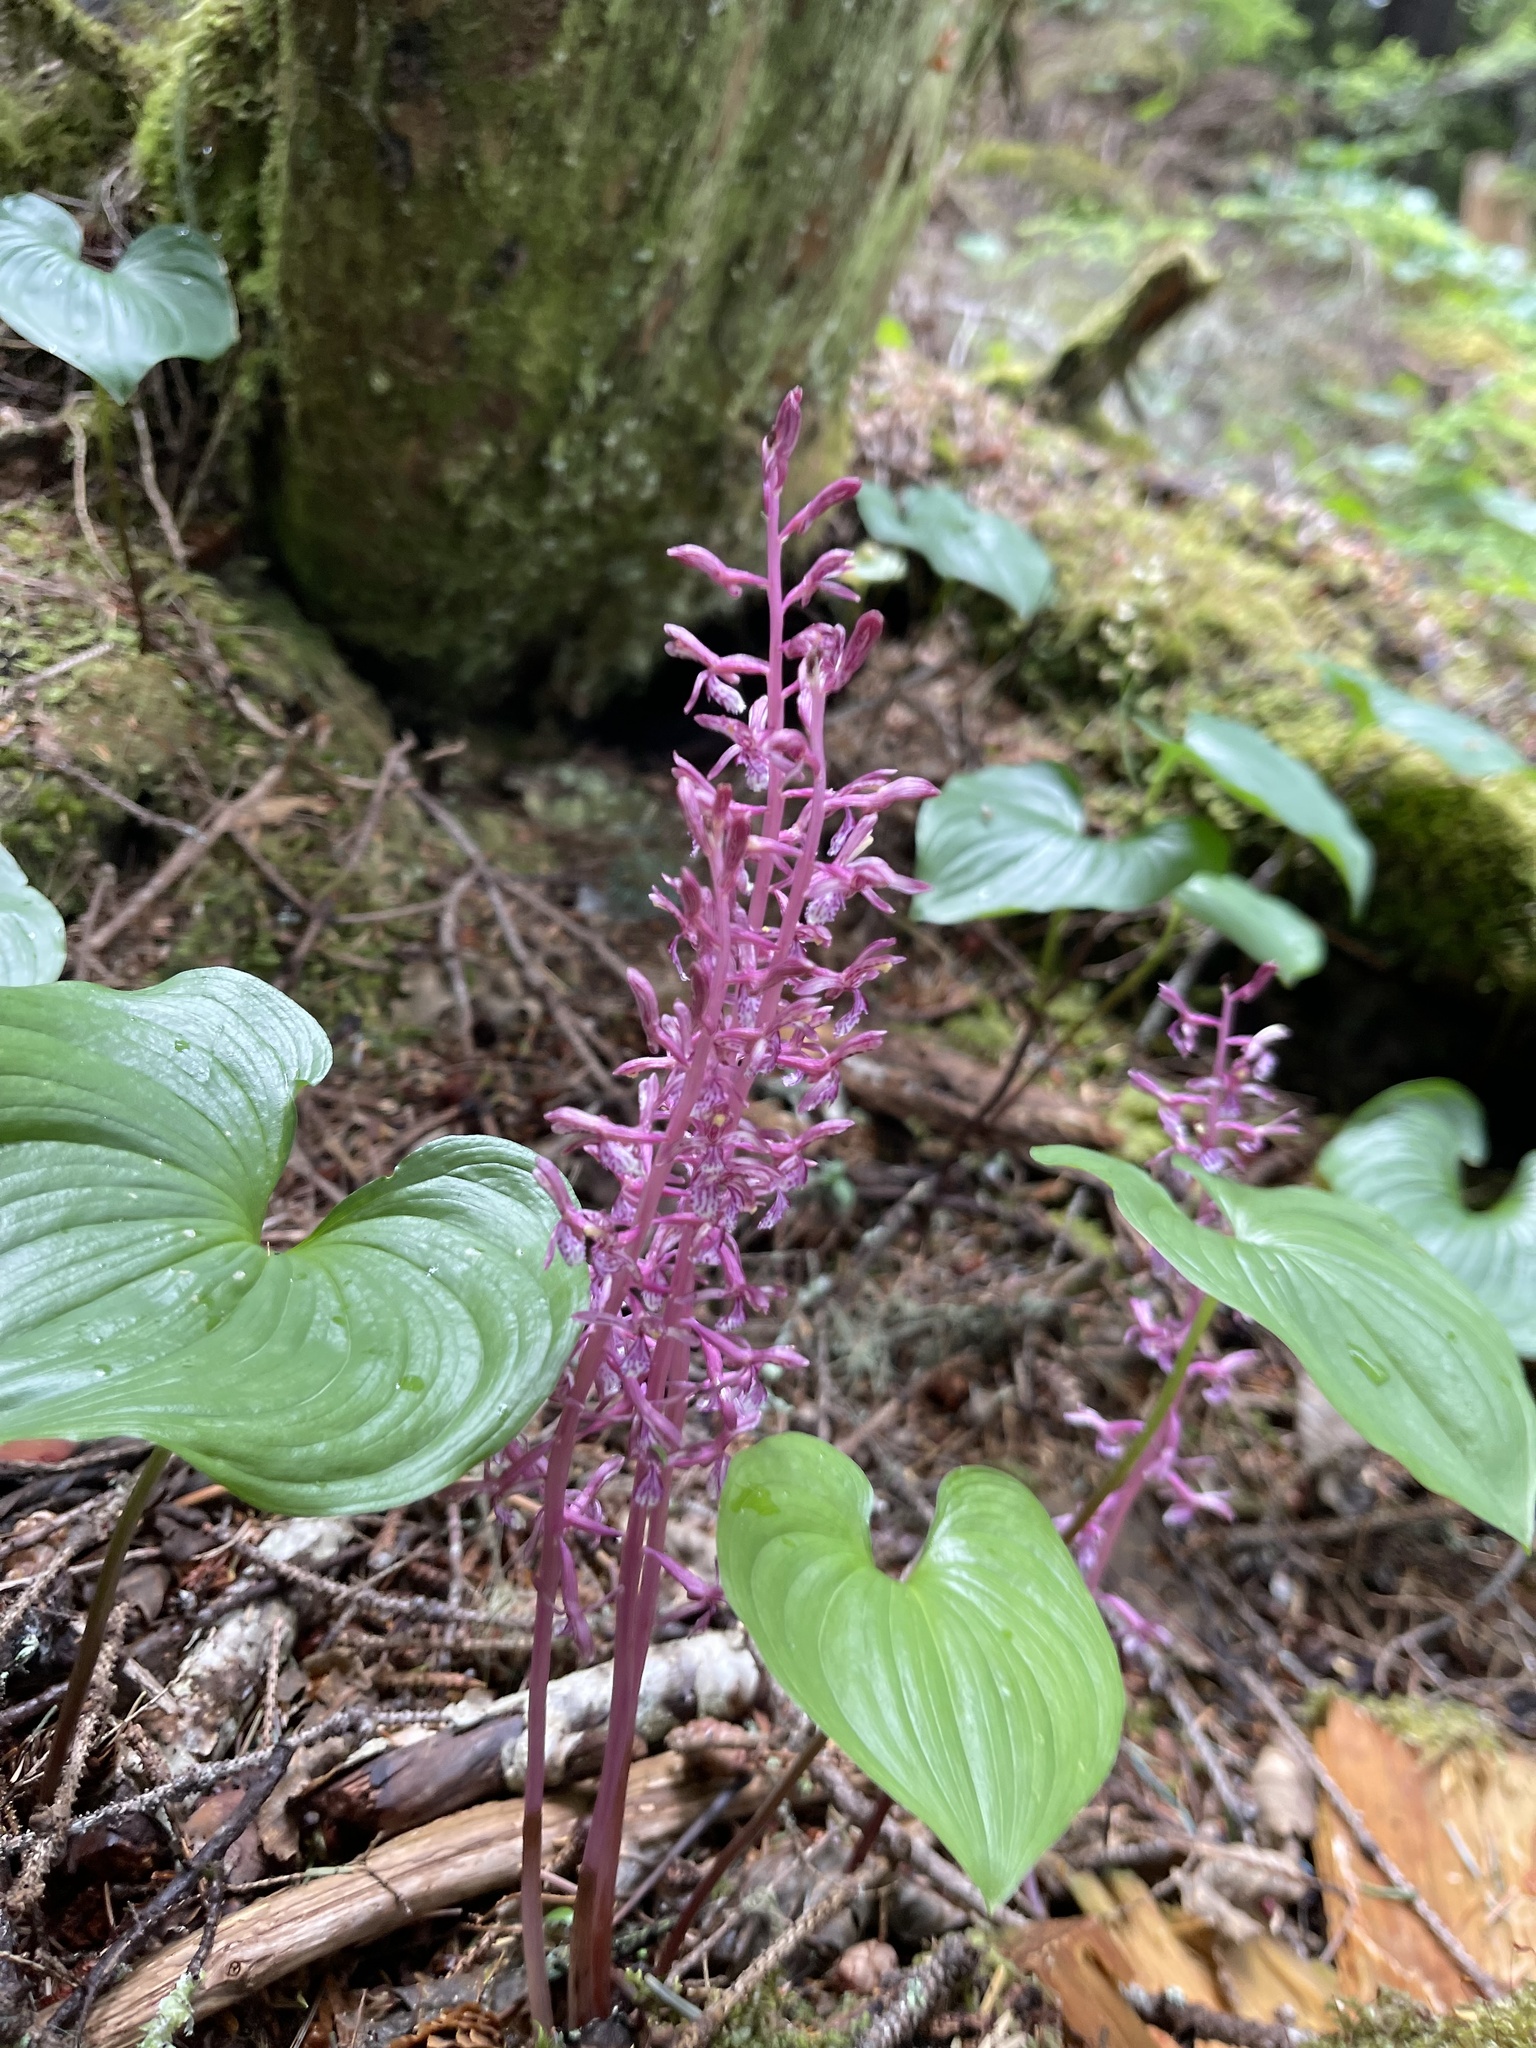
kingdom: Plantae
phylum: Tracheophyta
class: Liliopsida
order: Asparagales
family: Orchidaceae
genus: Corallorhiza
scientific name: Corallorhiza mertensiana
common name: Pacific coralroot
